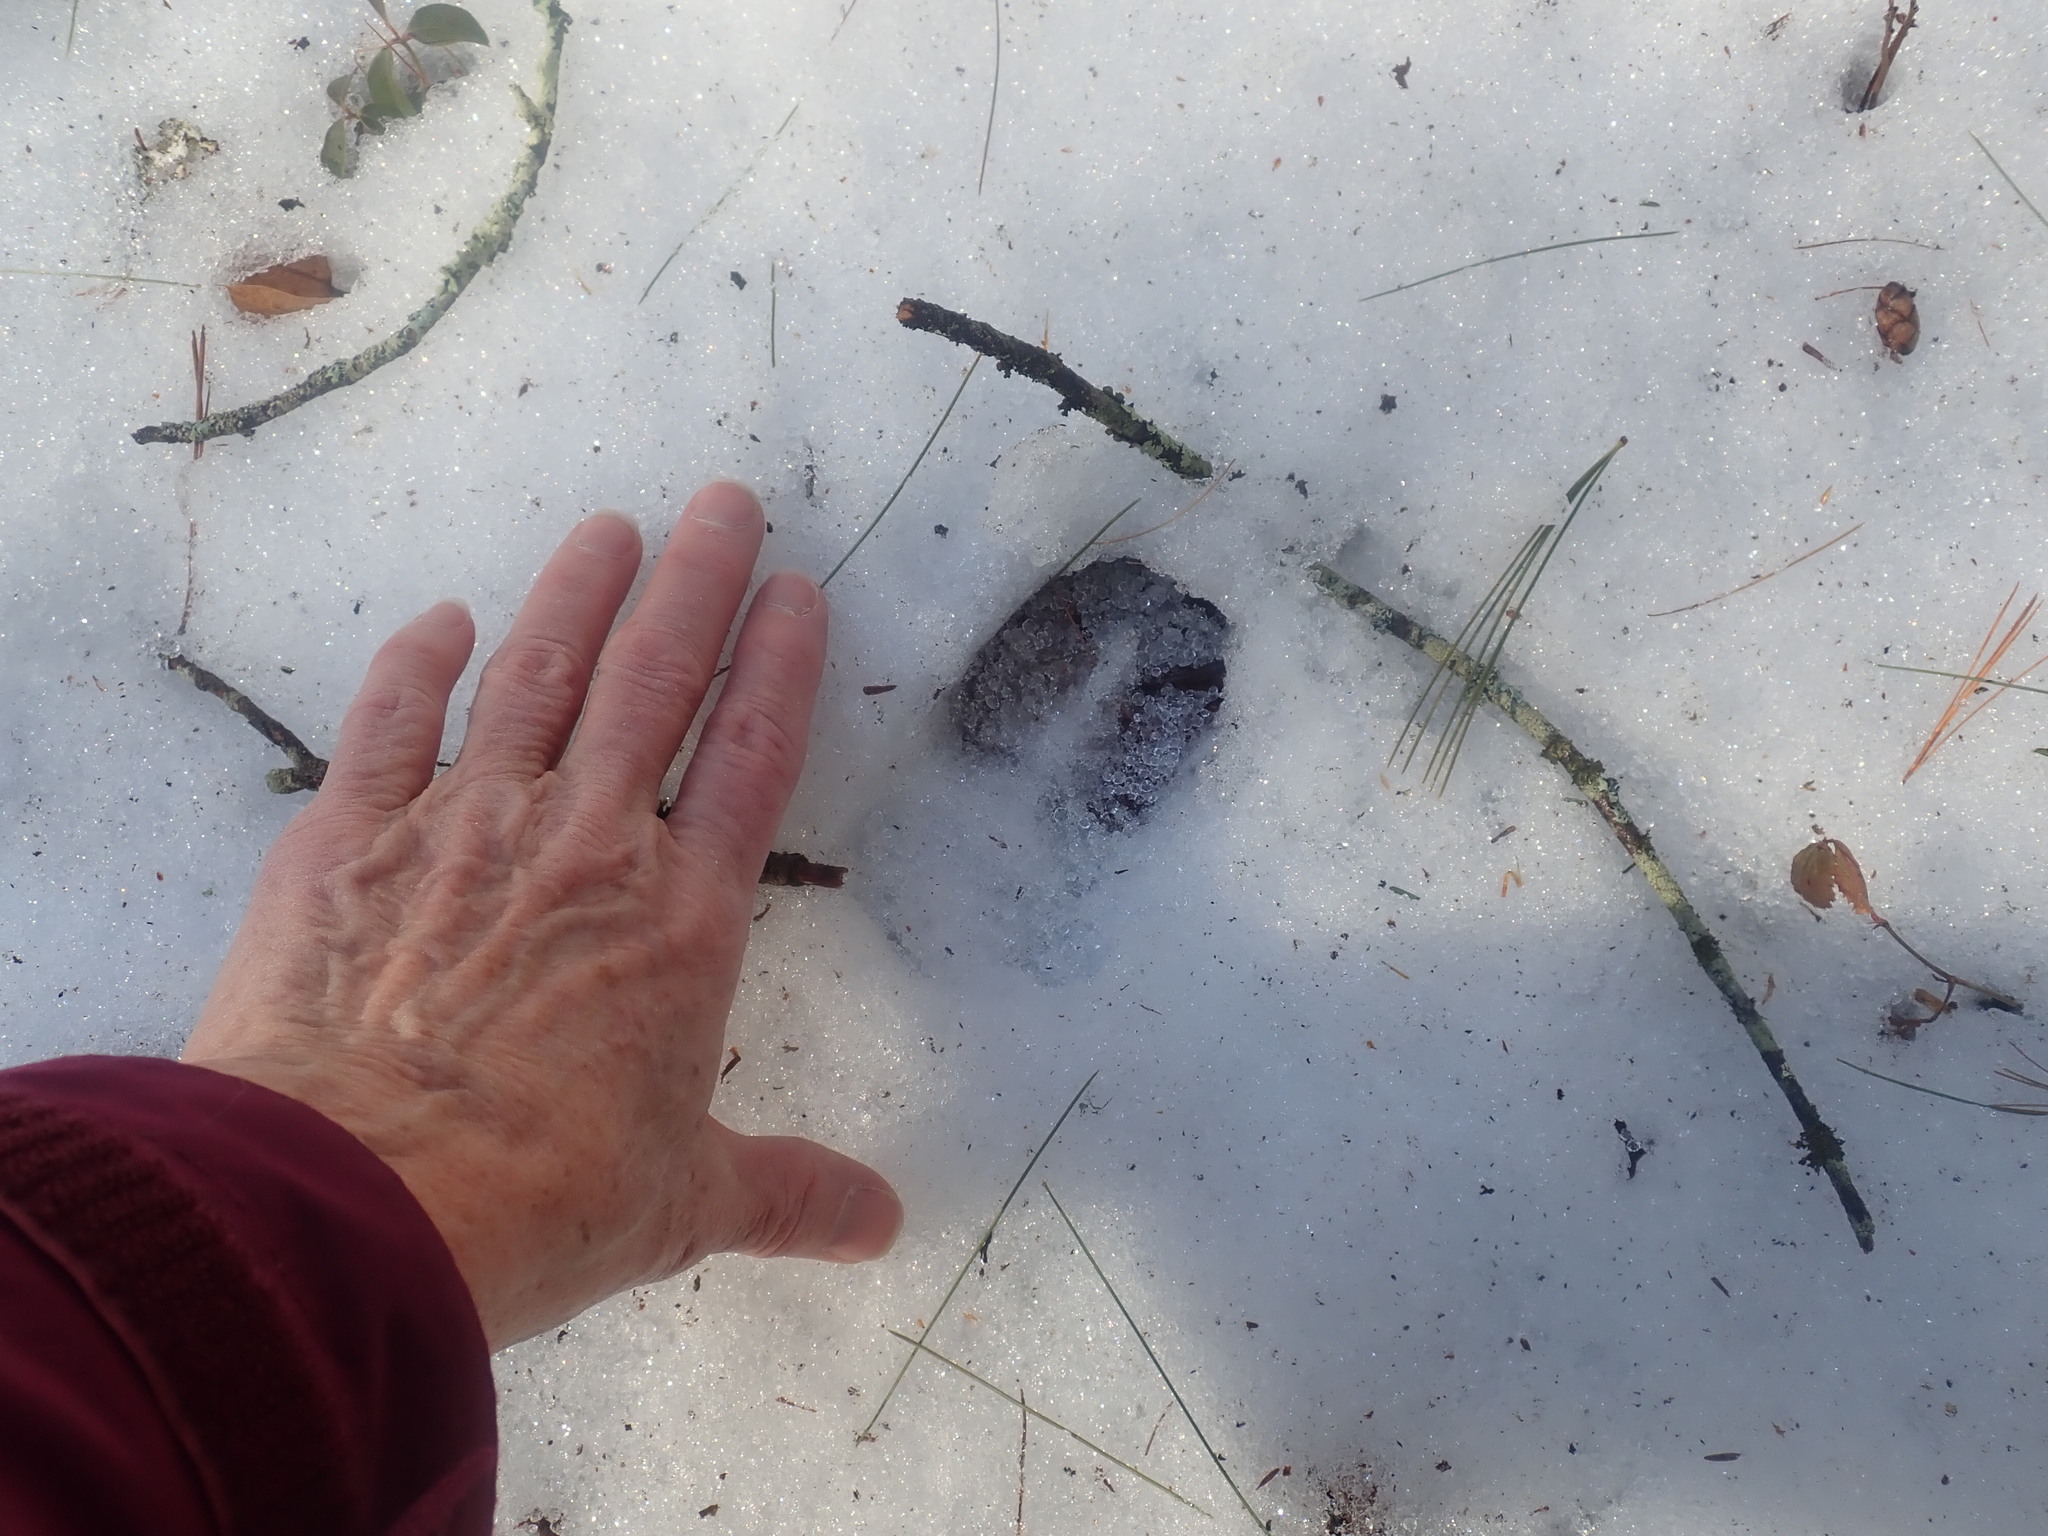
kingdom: Animalia
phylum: Chordata
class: Mammalia
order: Artiodactyla
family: Cervidae
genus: Odocoileus
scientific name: Odocoileus virginianus
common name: White-tailed deer
